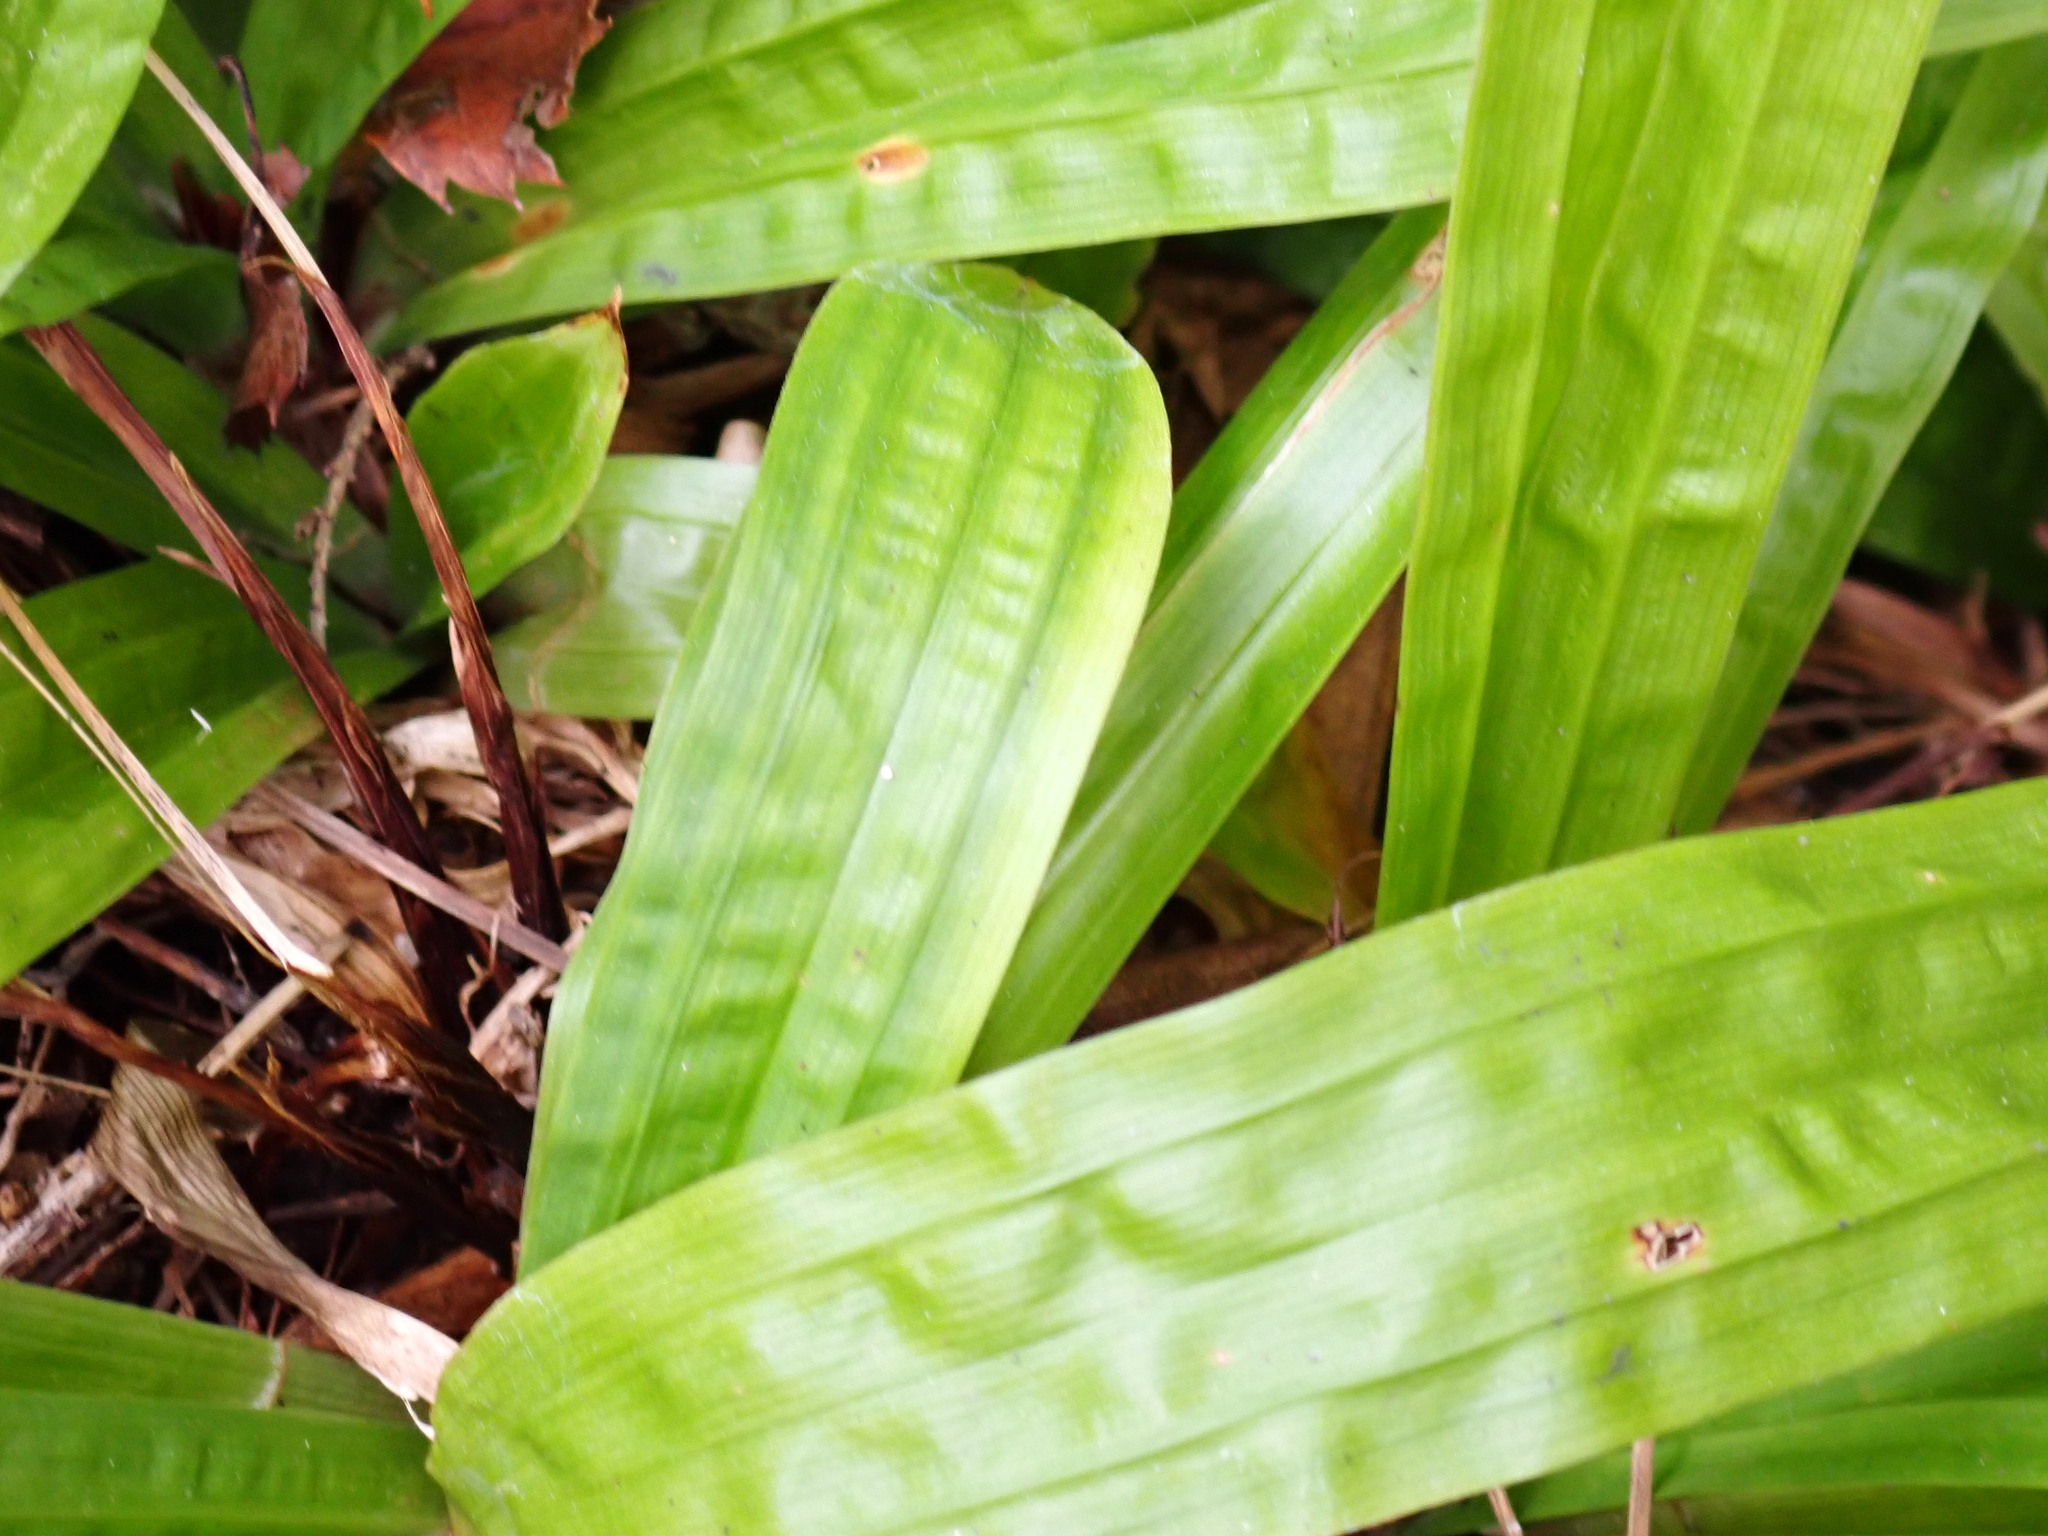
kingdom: Plantae
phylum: Tracheophyta
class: Liliopsida
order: Poales
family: Cyperaceae
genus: Carex
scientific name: Carex plantaginea
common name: Plantain-leaved sedge
